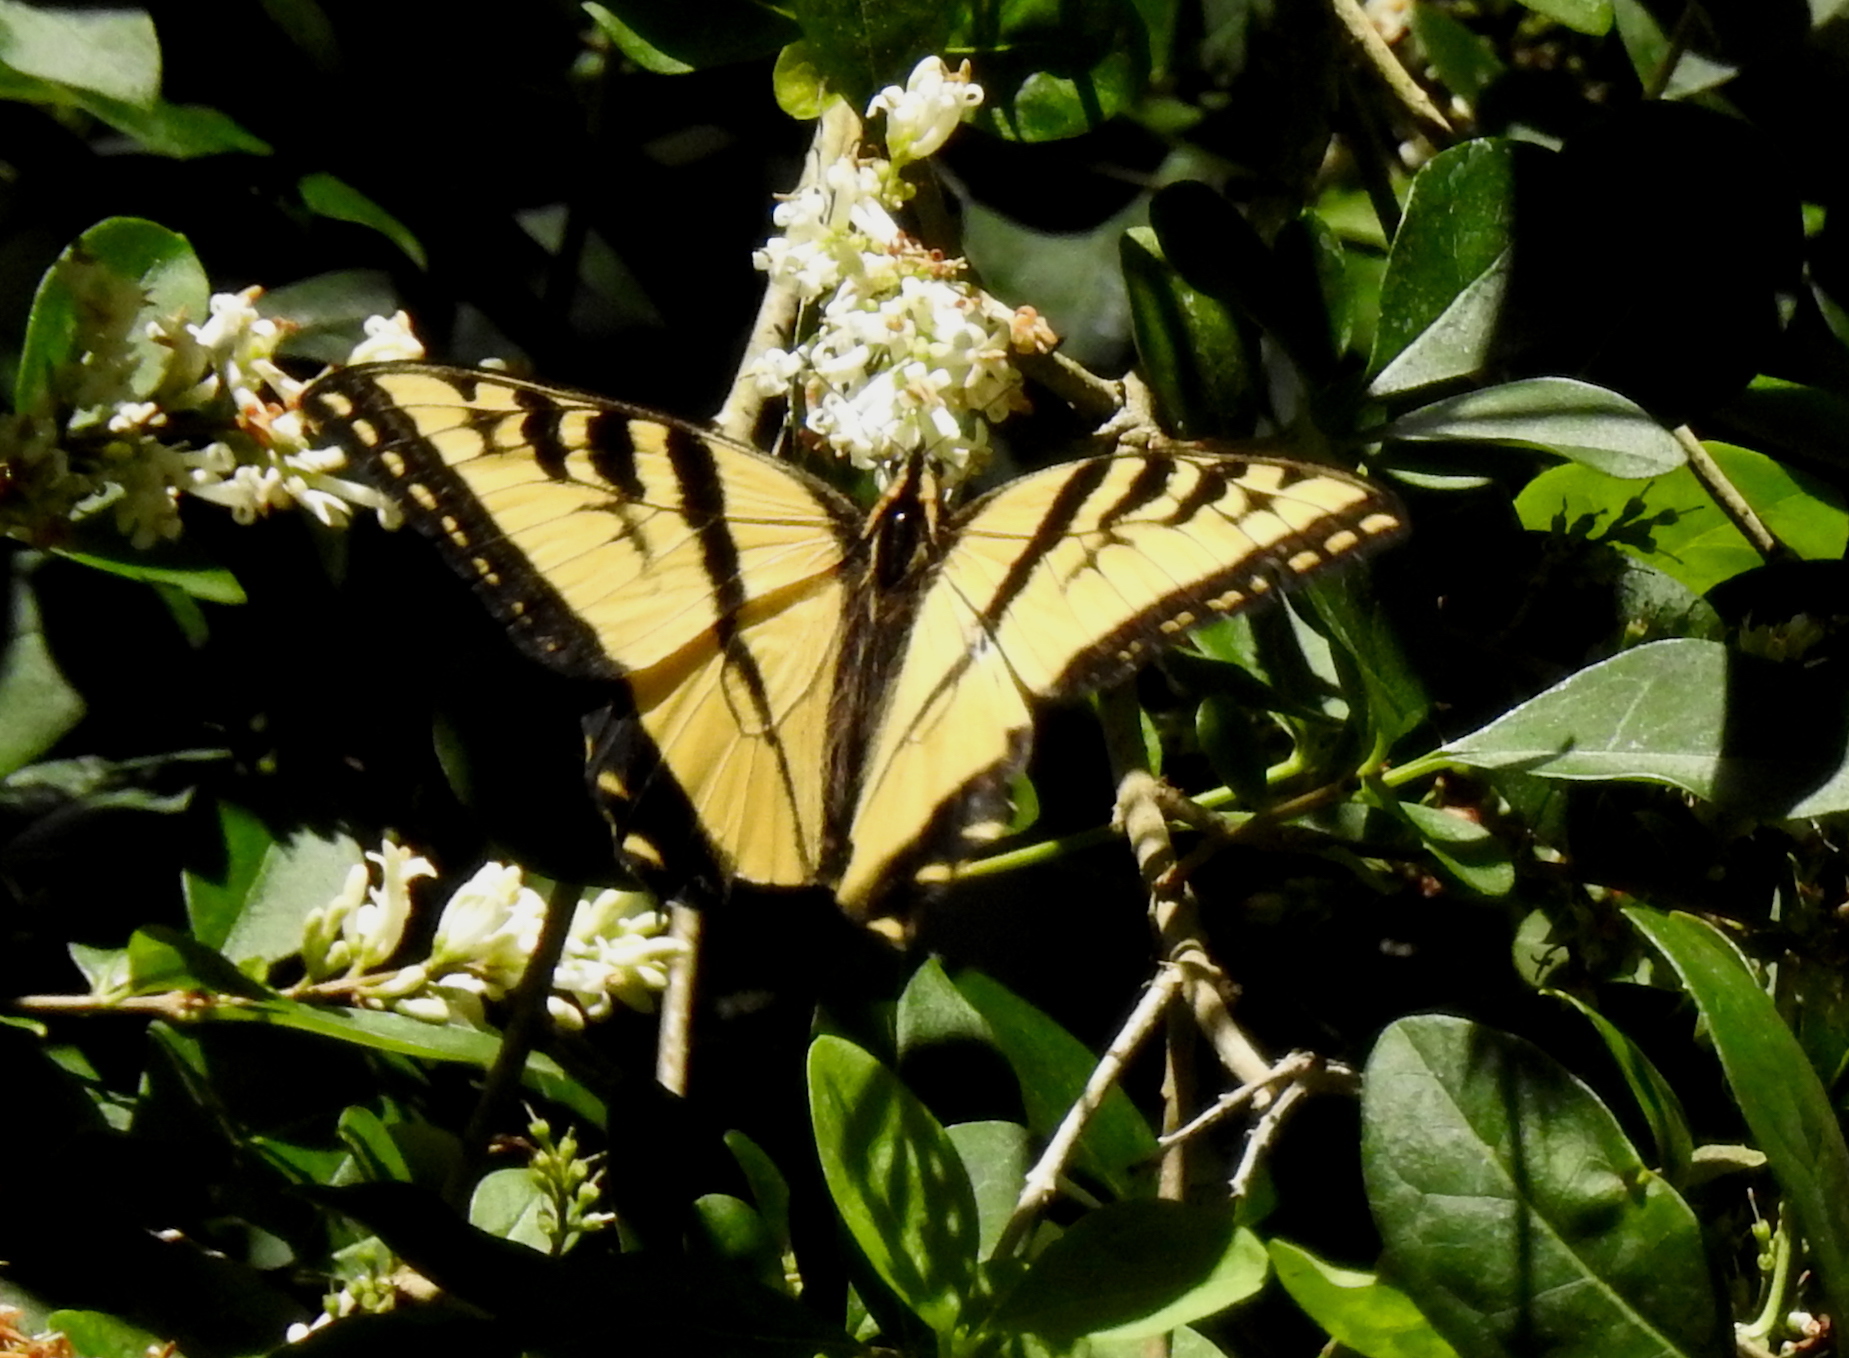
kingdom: Animalia
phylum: Arthropoda
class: Insecta
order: Lepidoptera
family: Papilionidae
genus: Papilio
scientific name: Papilio rutulus
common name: Western tiger swallowtail
